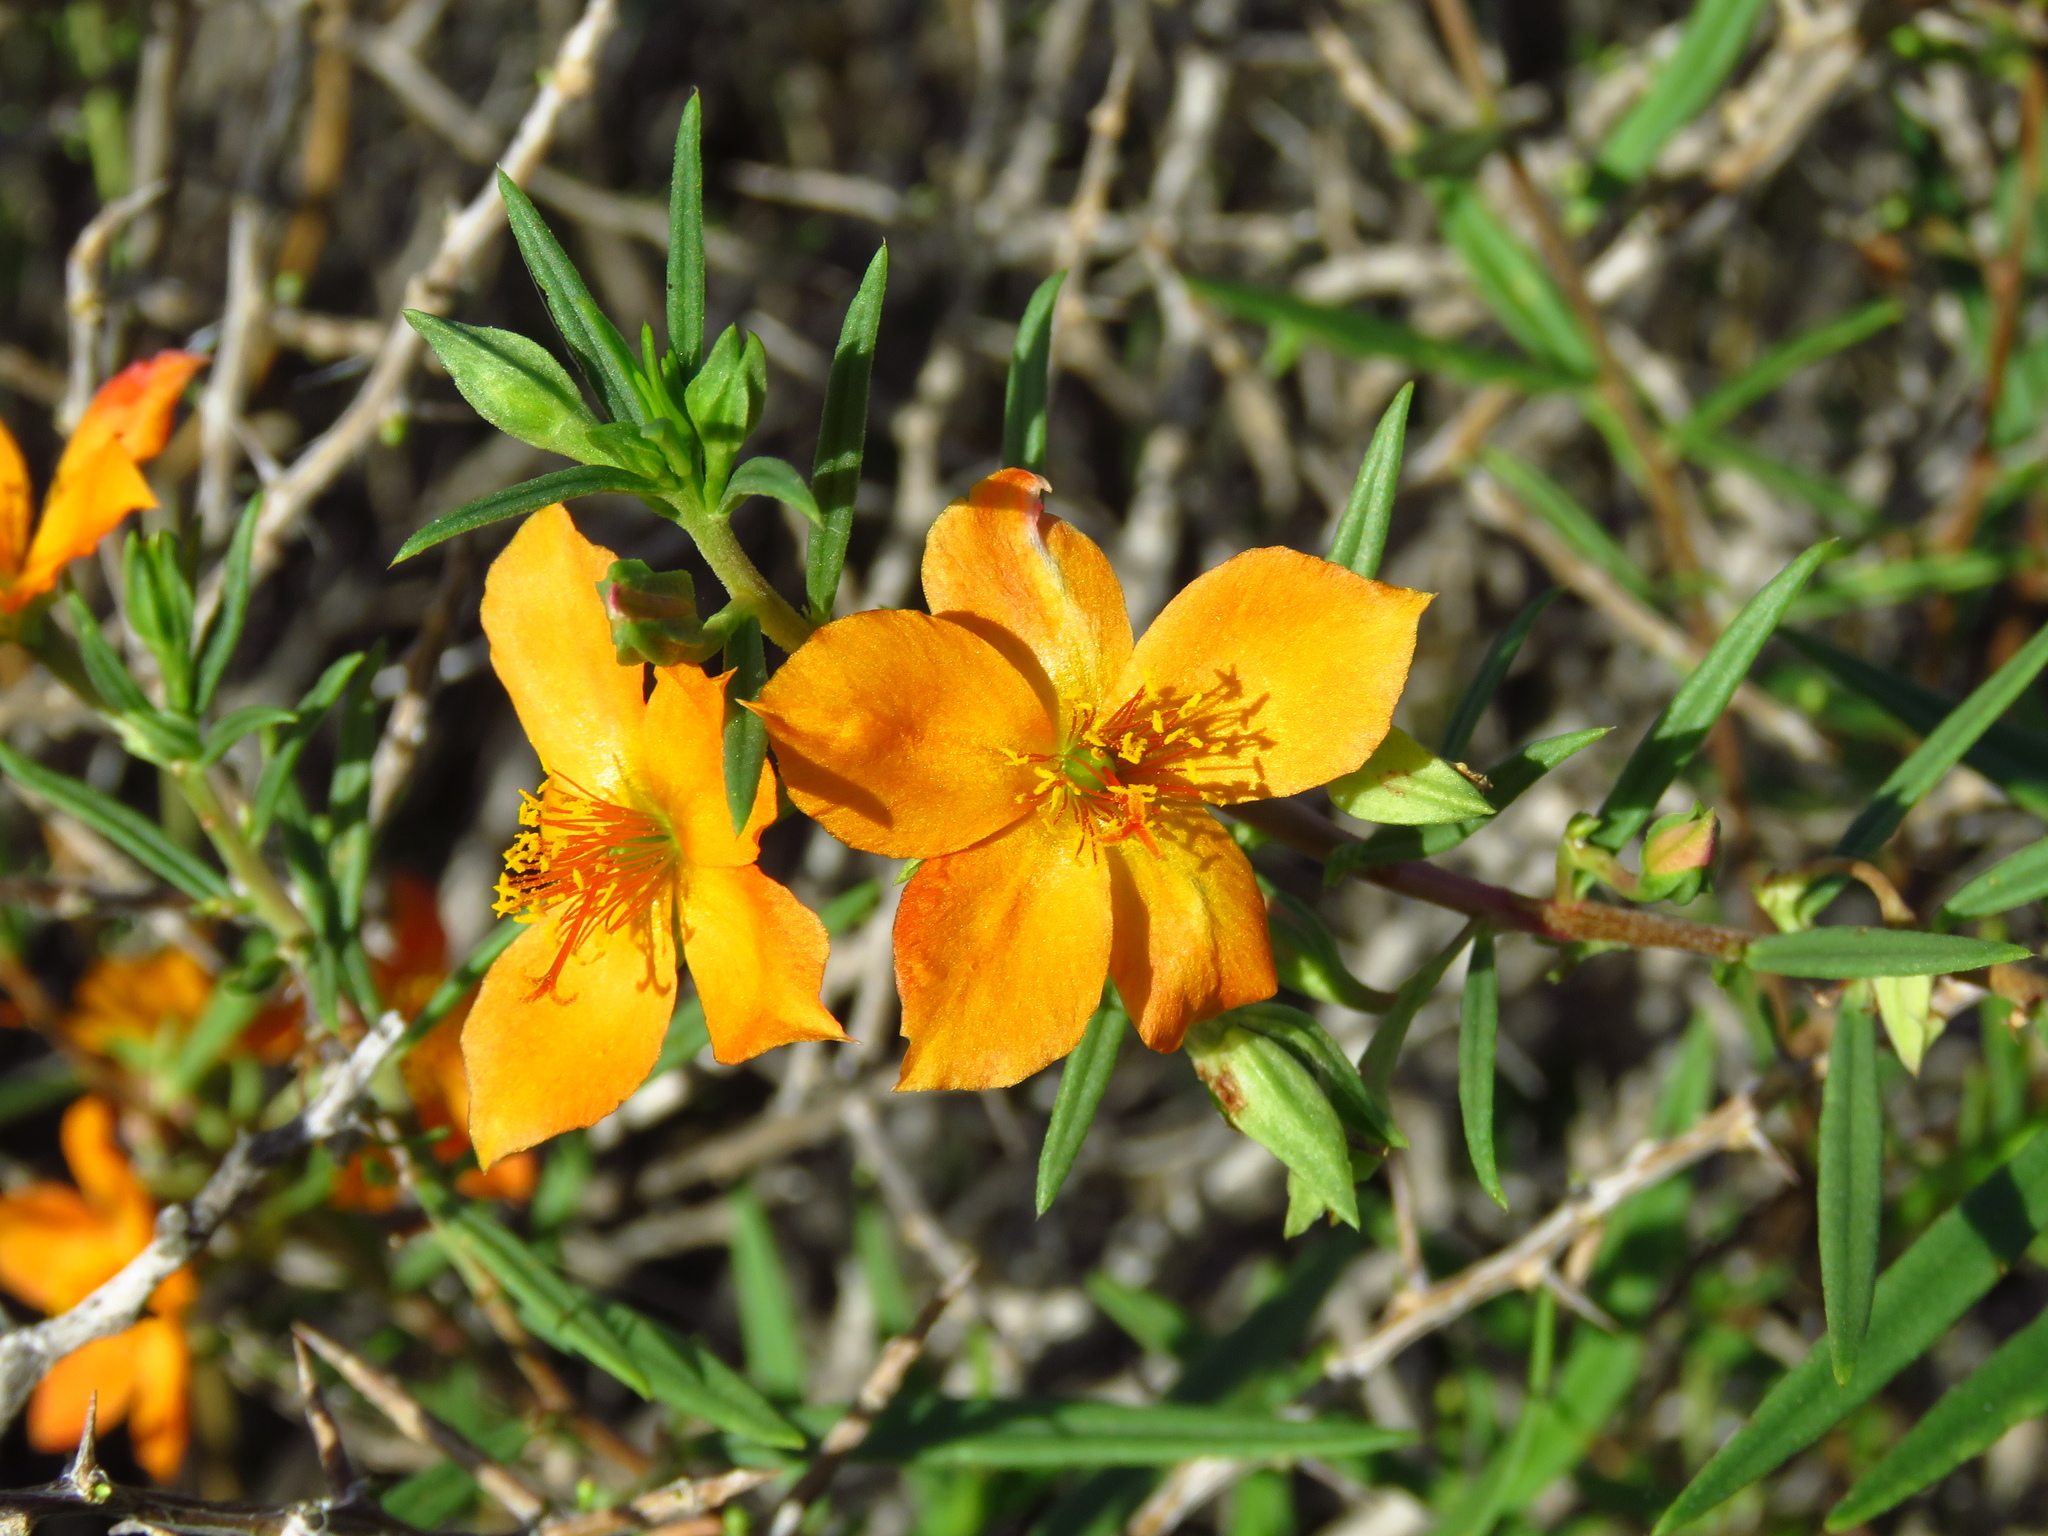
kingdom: Plantae
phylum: Tracheophyta
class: Magnoliopsida
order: Caryophyllales
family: Montiaceae
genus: Phemeranthus
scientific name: Phemeranthus aurantiacus
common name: Orange fameflower
